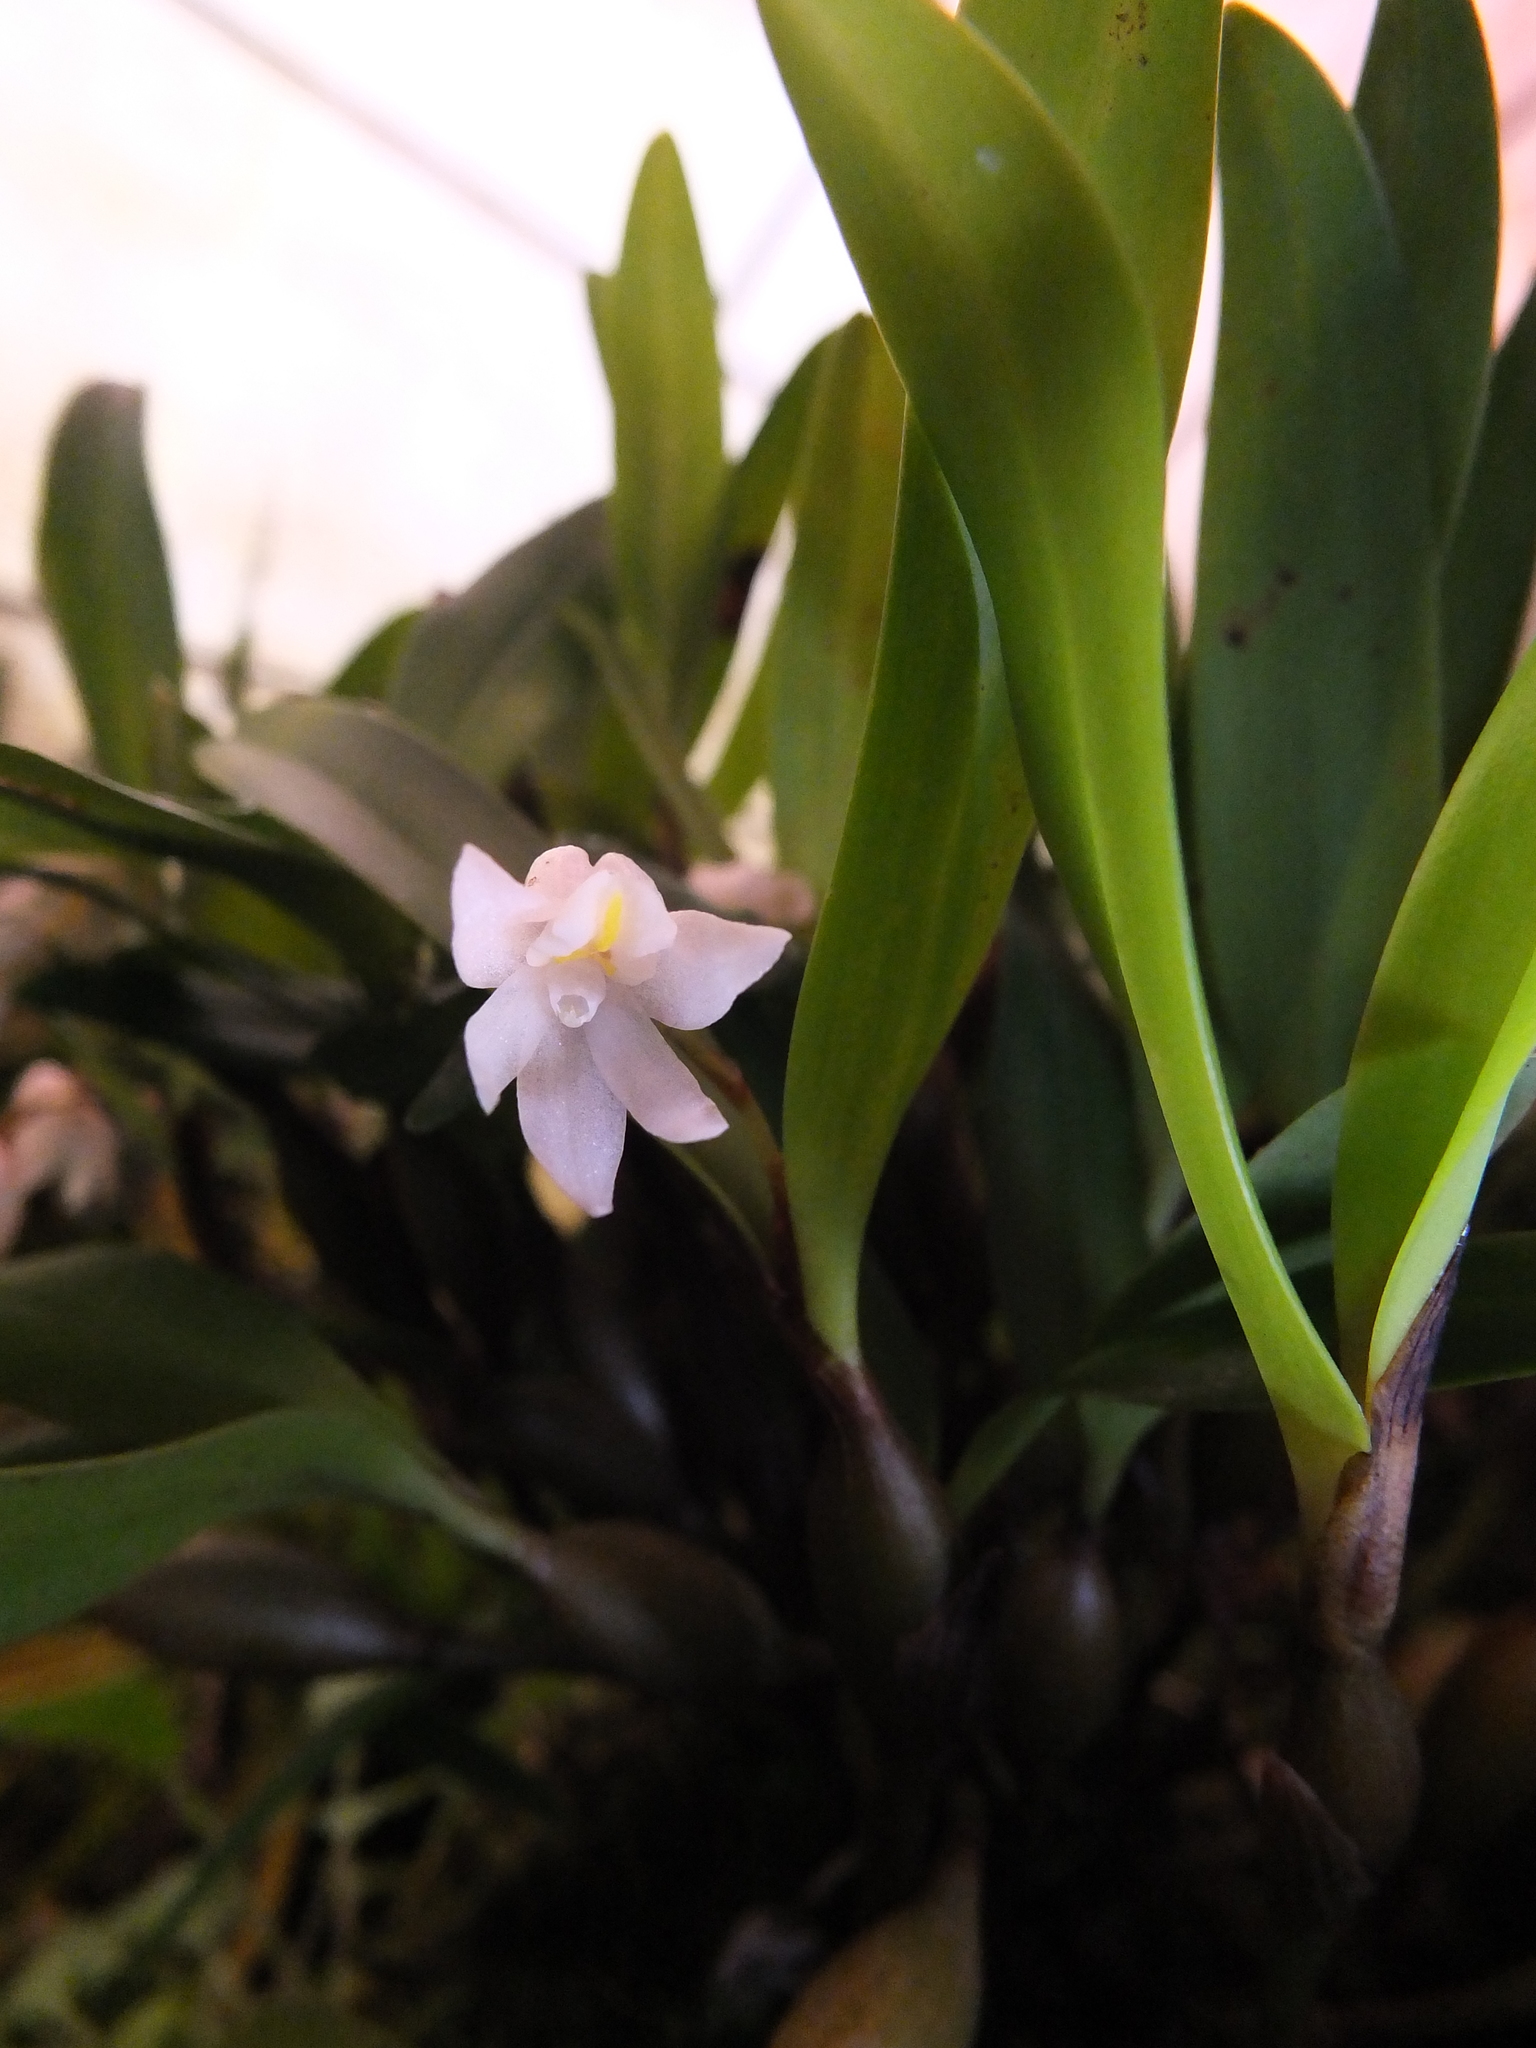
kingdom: Plantae
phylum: Tracheophyta
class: Liliopsida
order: Asparagales
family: Orchidaceae
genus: Cylindrolobus
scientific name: Cylindrolobus pseudoclavicaulis
